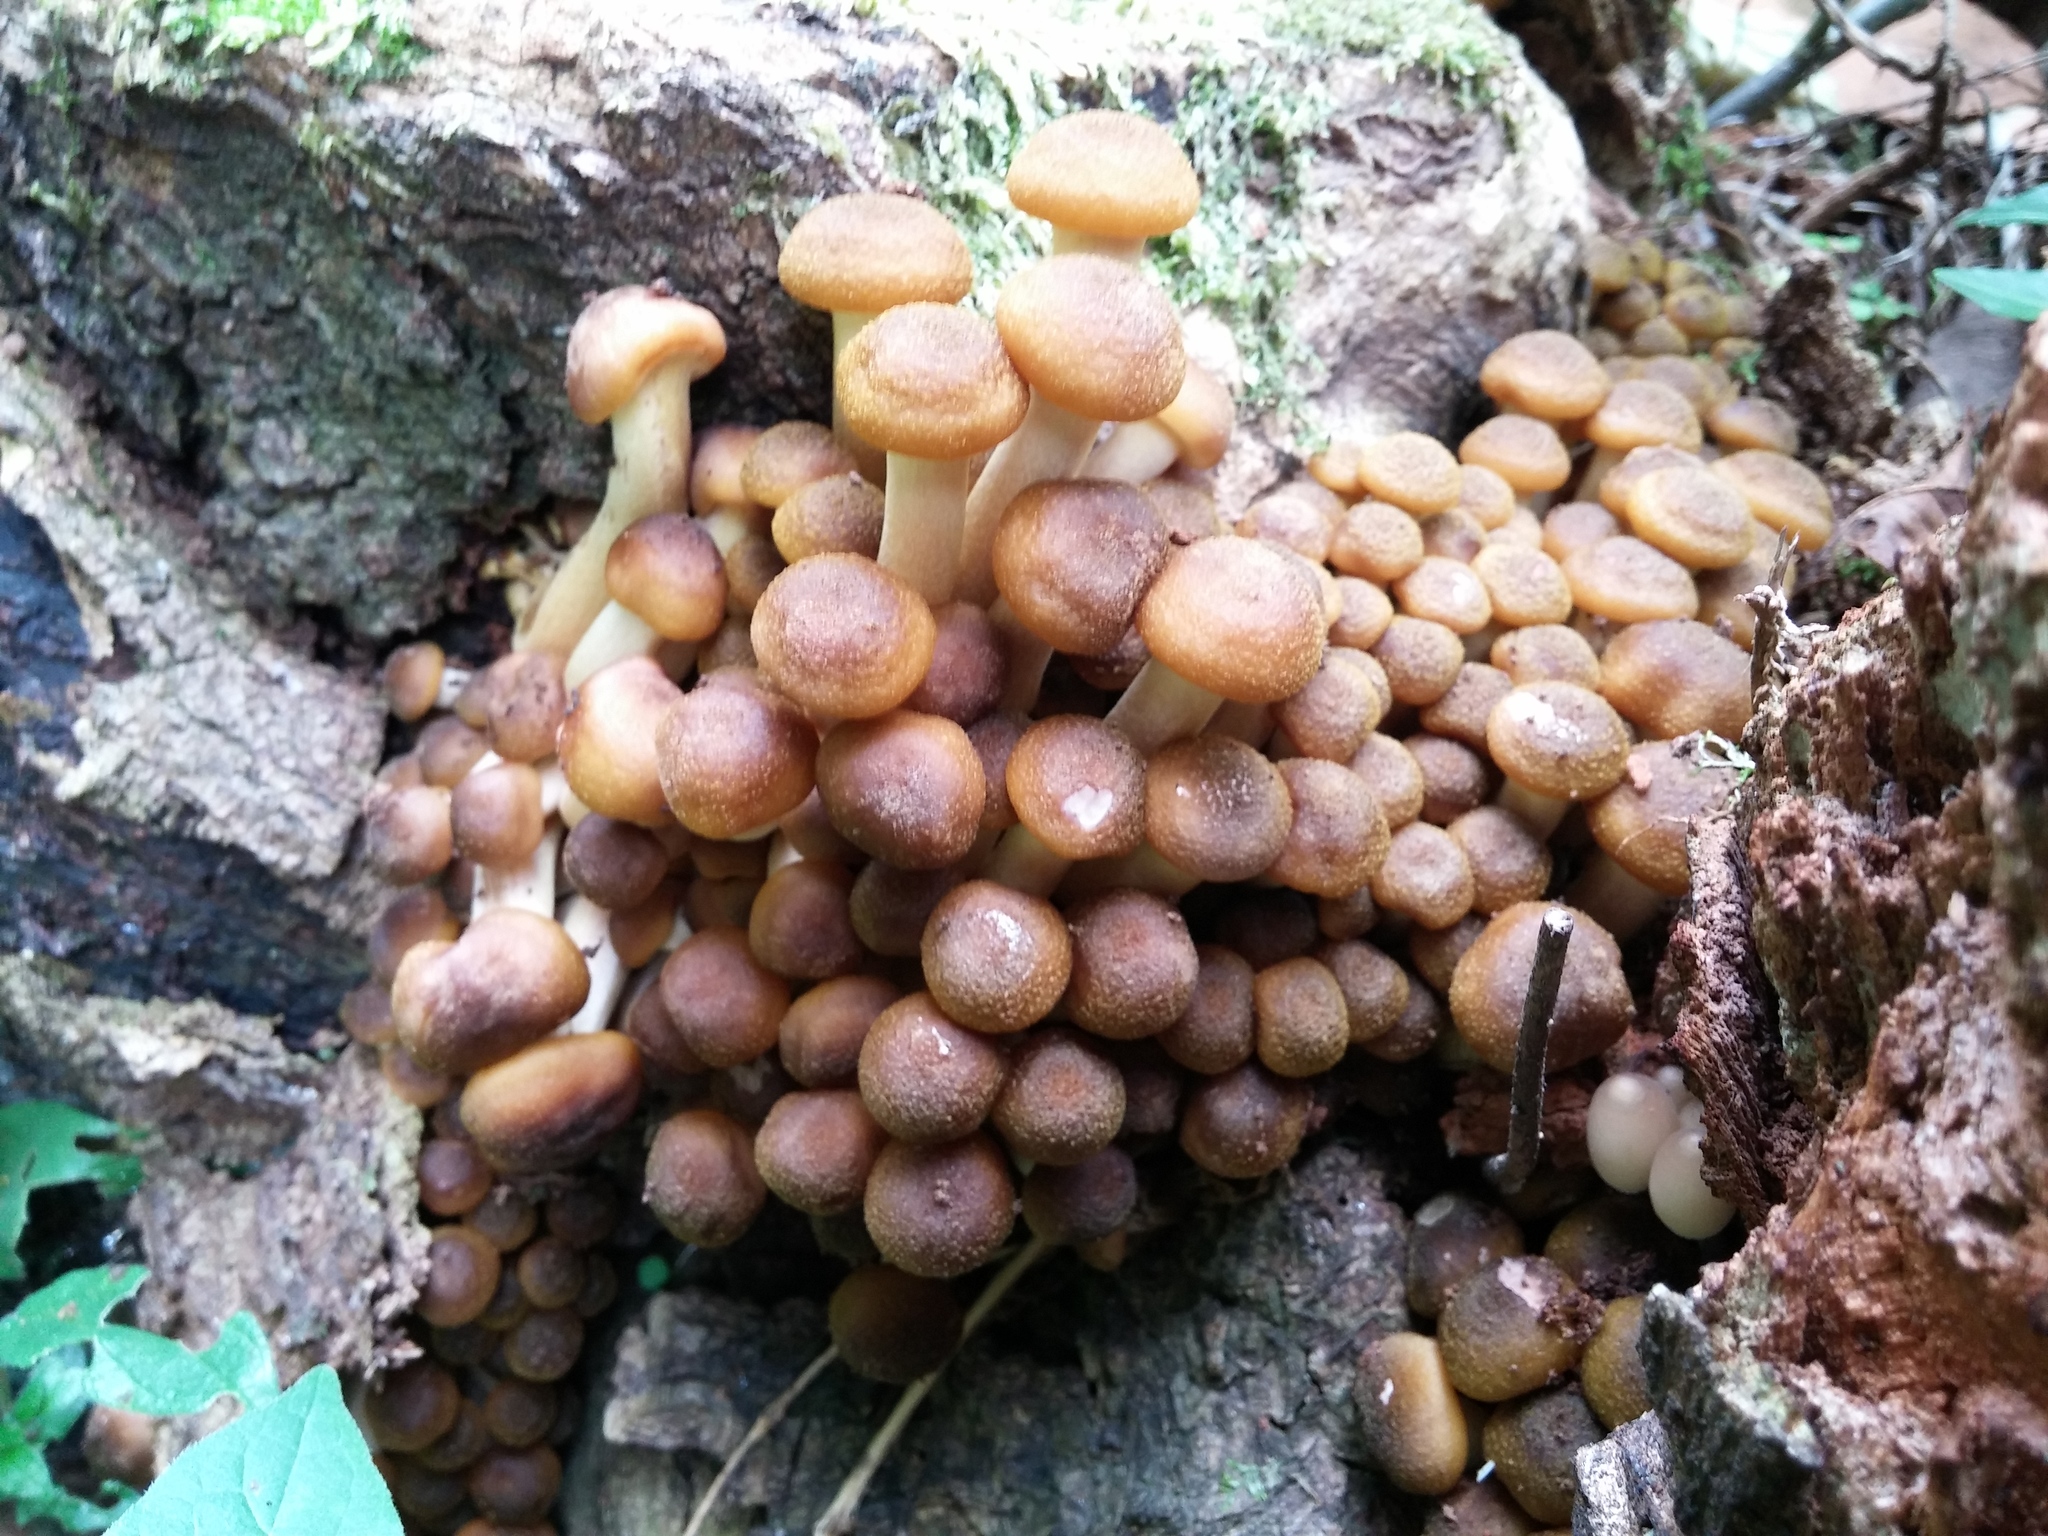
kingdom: Fungi
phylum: Basidiomycota
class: Agaricomycetes
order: Agaricales
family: Physalacriaceae
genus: Armillaria
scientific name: Armillaria mellea
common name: Honey fungus
